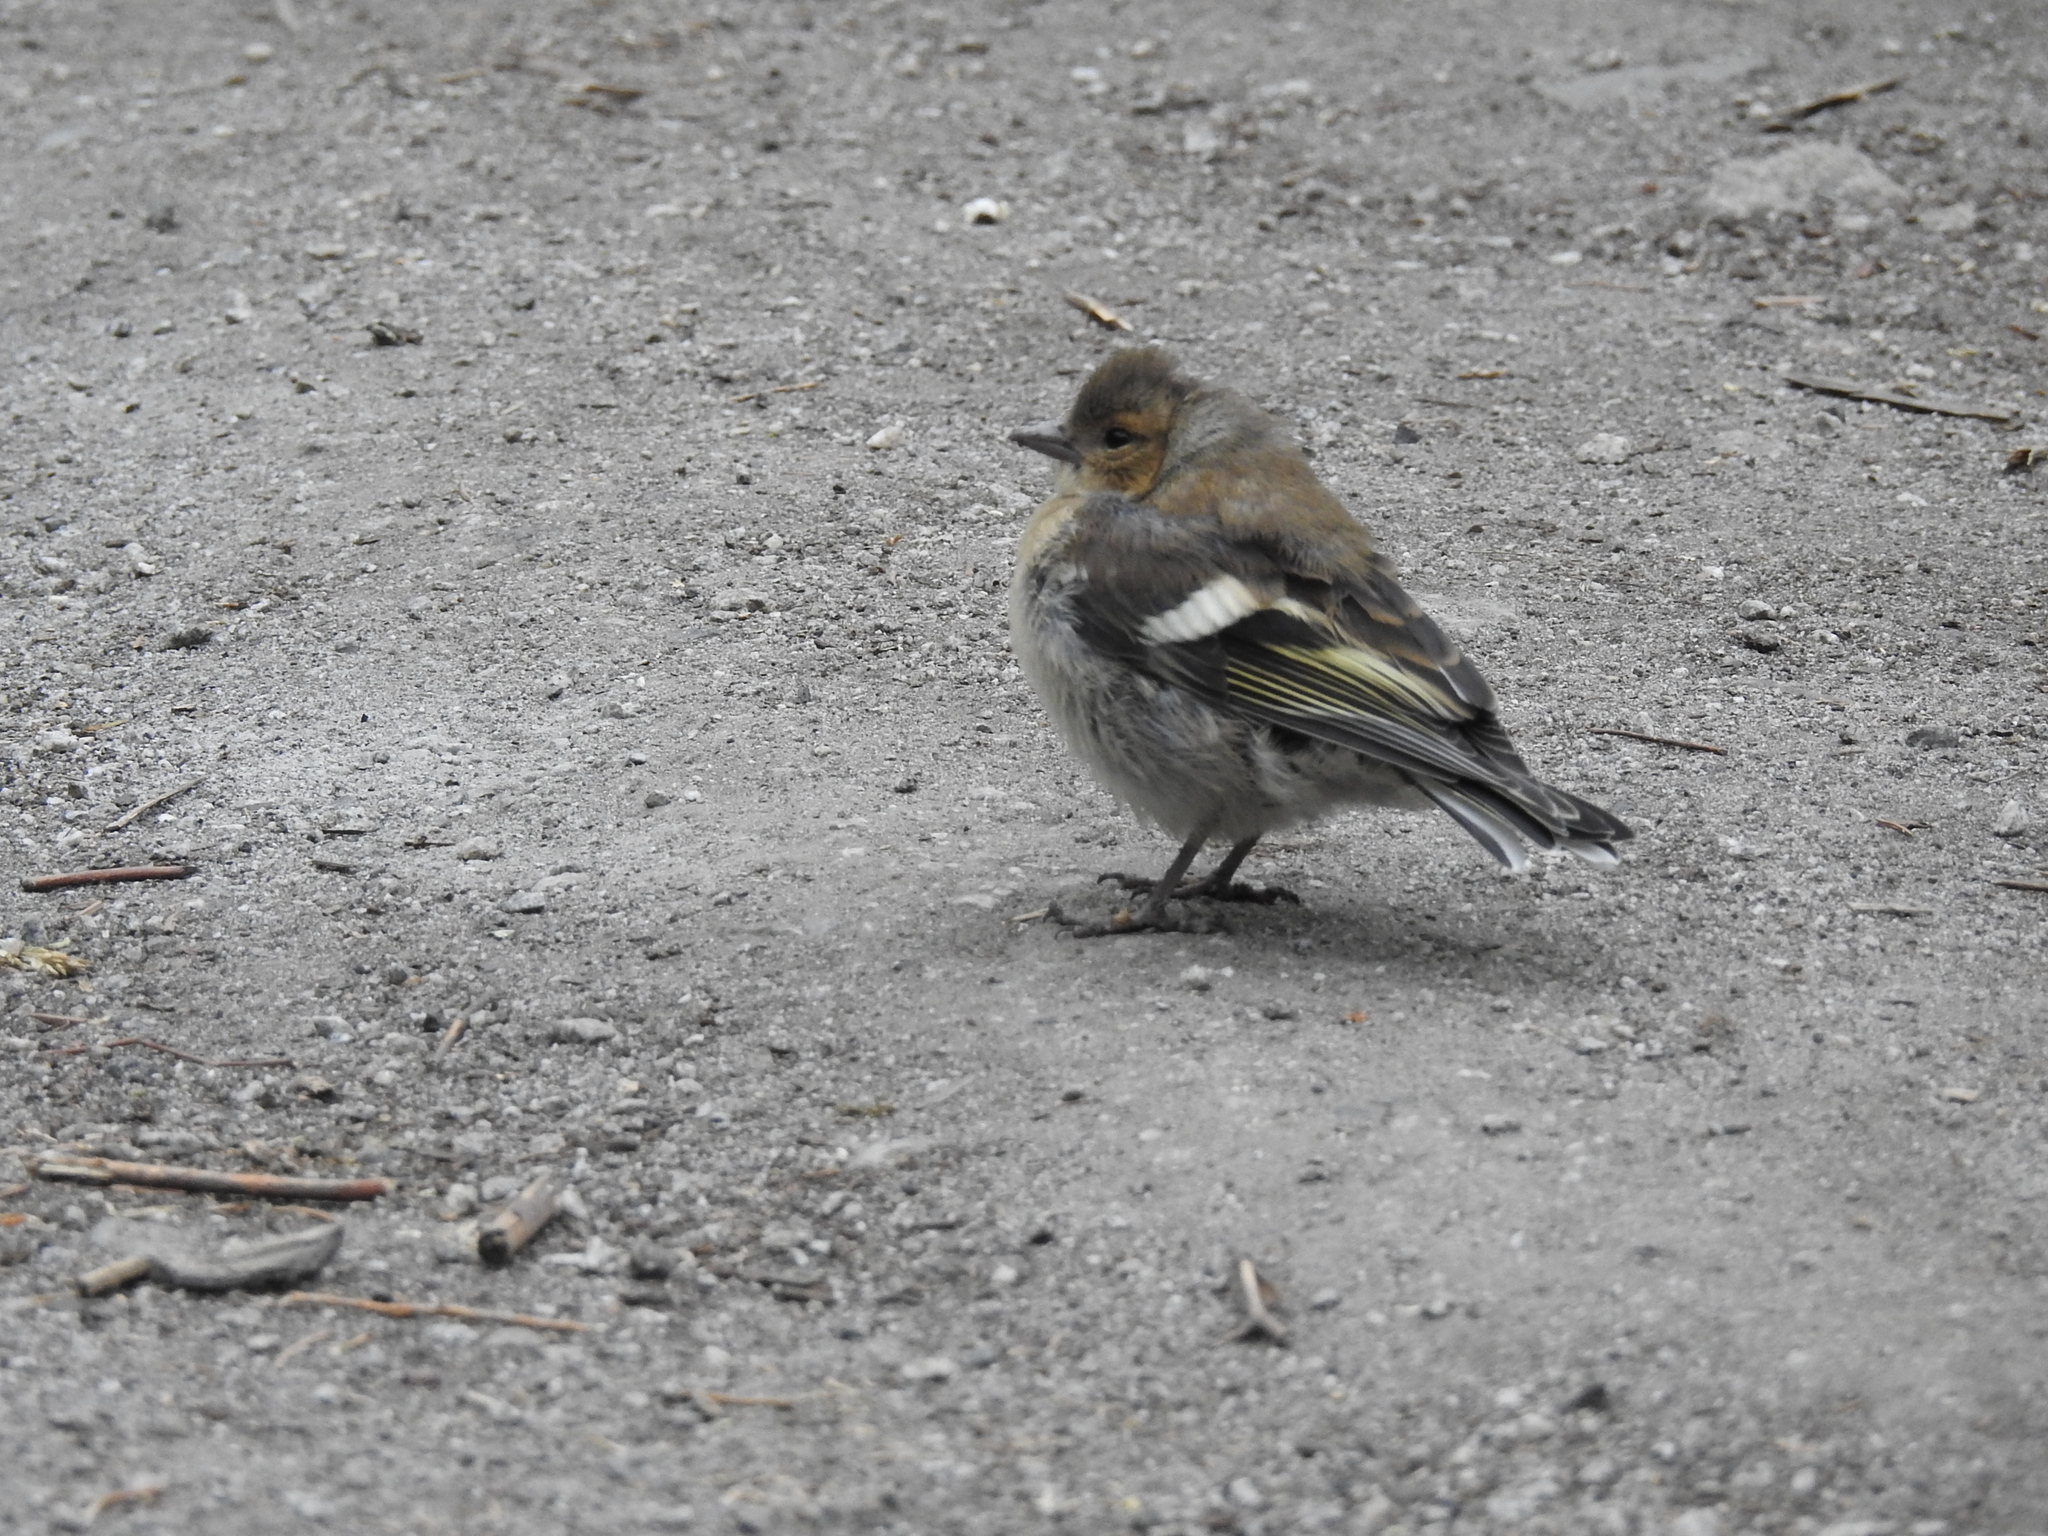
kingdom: Animalia
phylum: Chordata
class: Aves
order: Passeriformes
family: Fringillidae
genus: Fringilla
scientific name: Fringilla coelebs
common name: Common chaffinch
